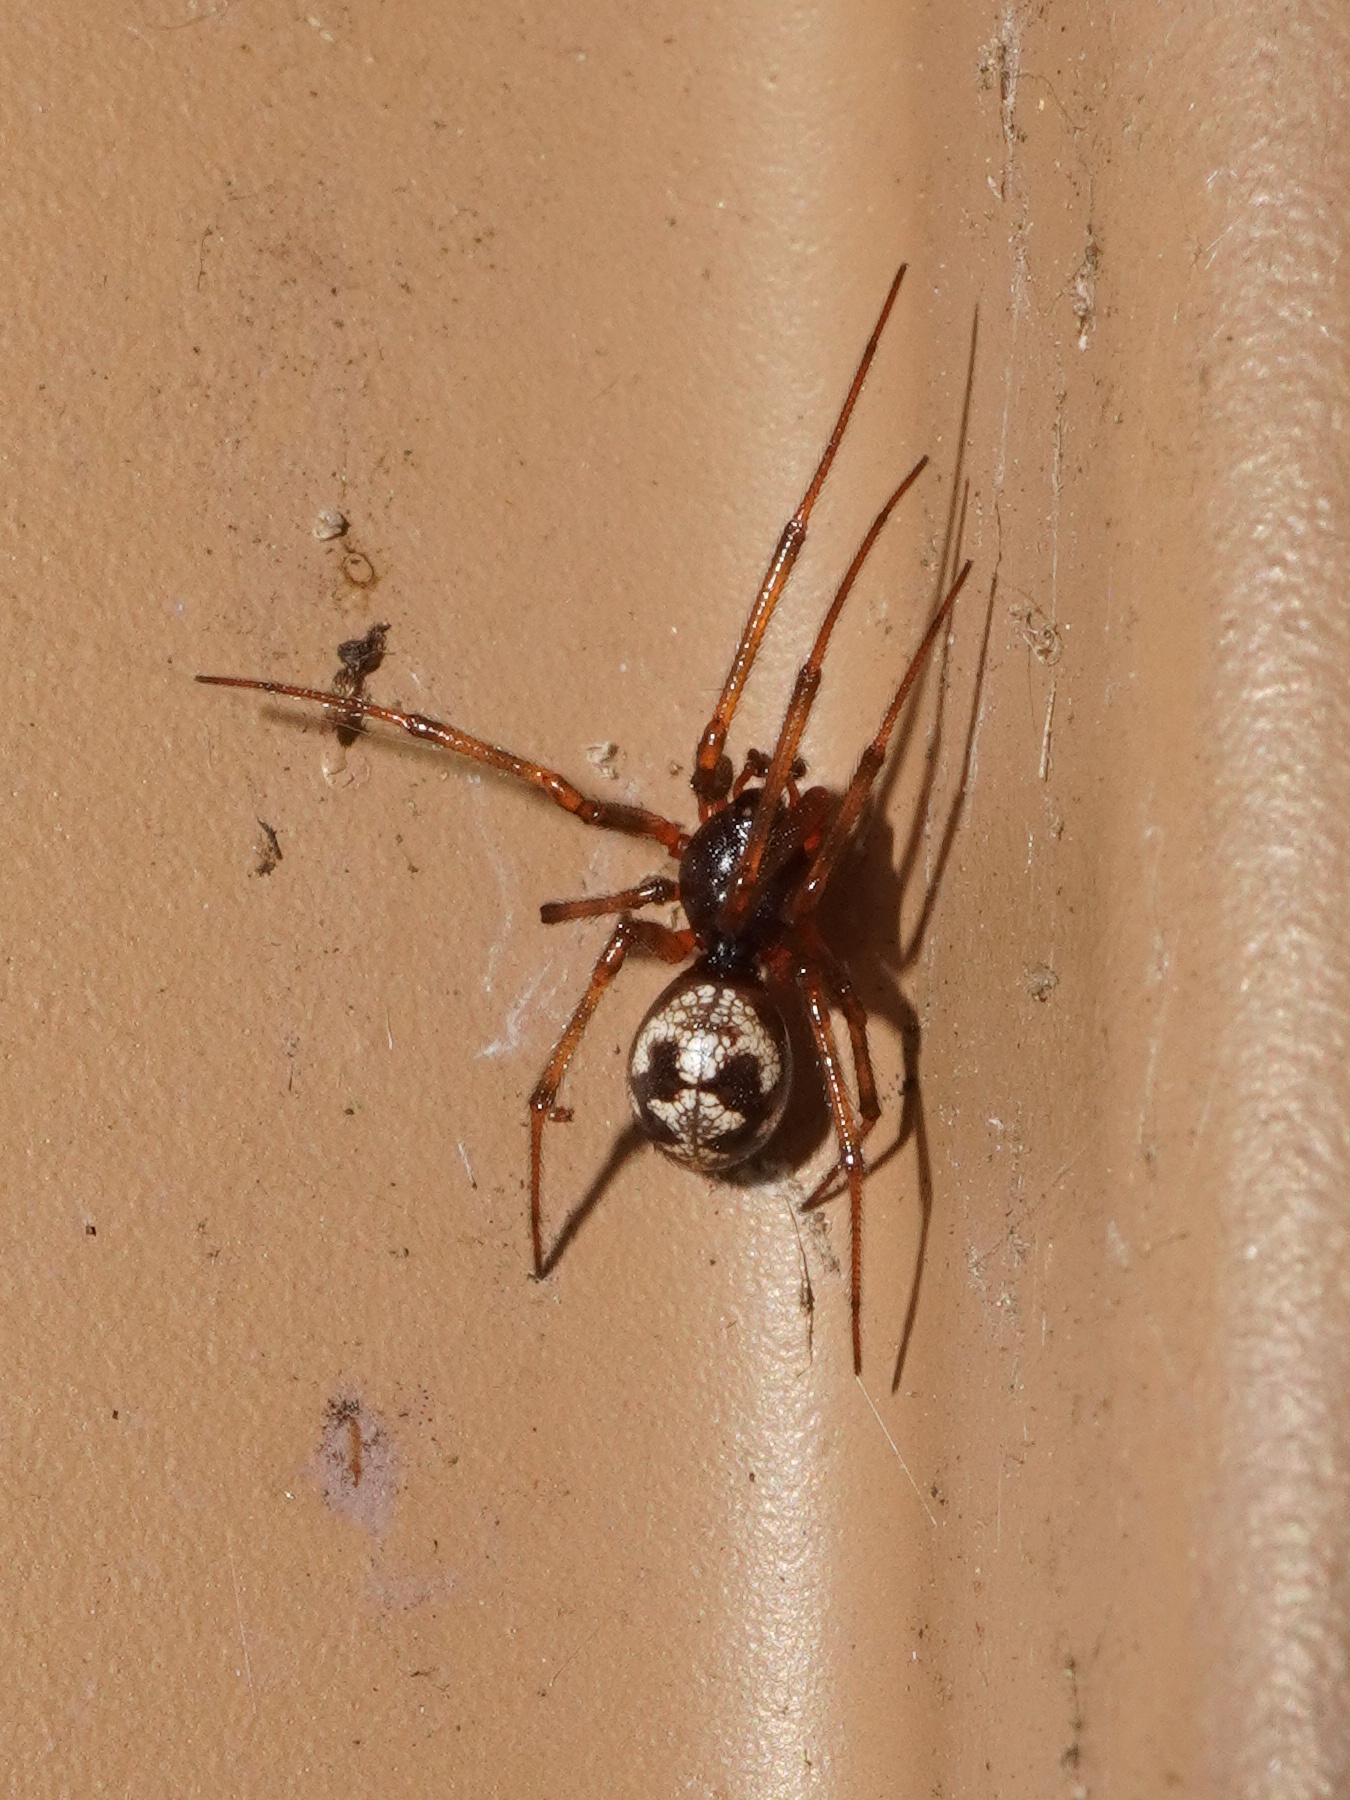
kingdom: Animalia
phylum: Arthropoda
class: Arachnida
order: Araneae
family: Theridiidae
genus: Steatoda
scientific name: Steatoda triangulosa
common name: Triangulate bud spider
